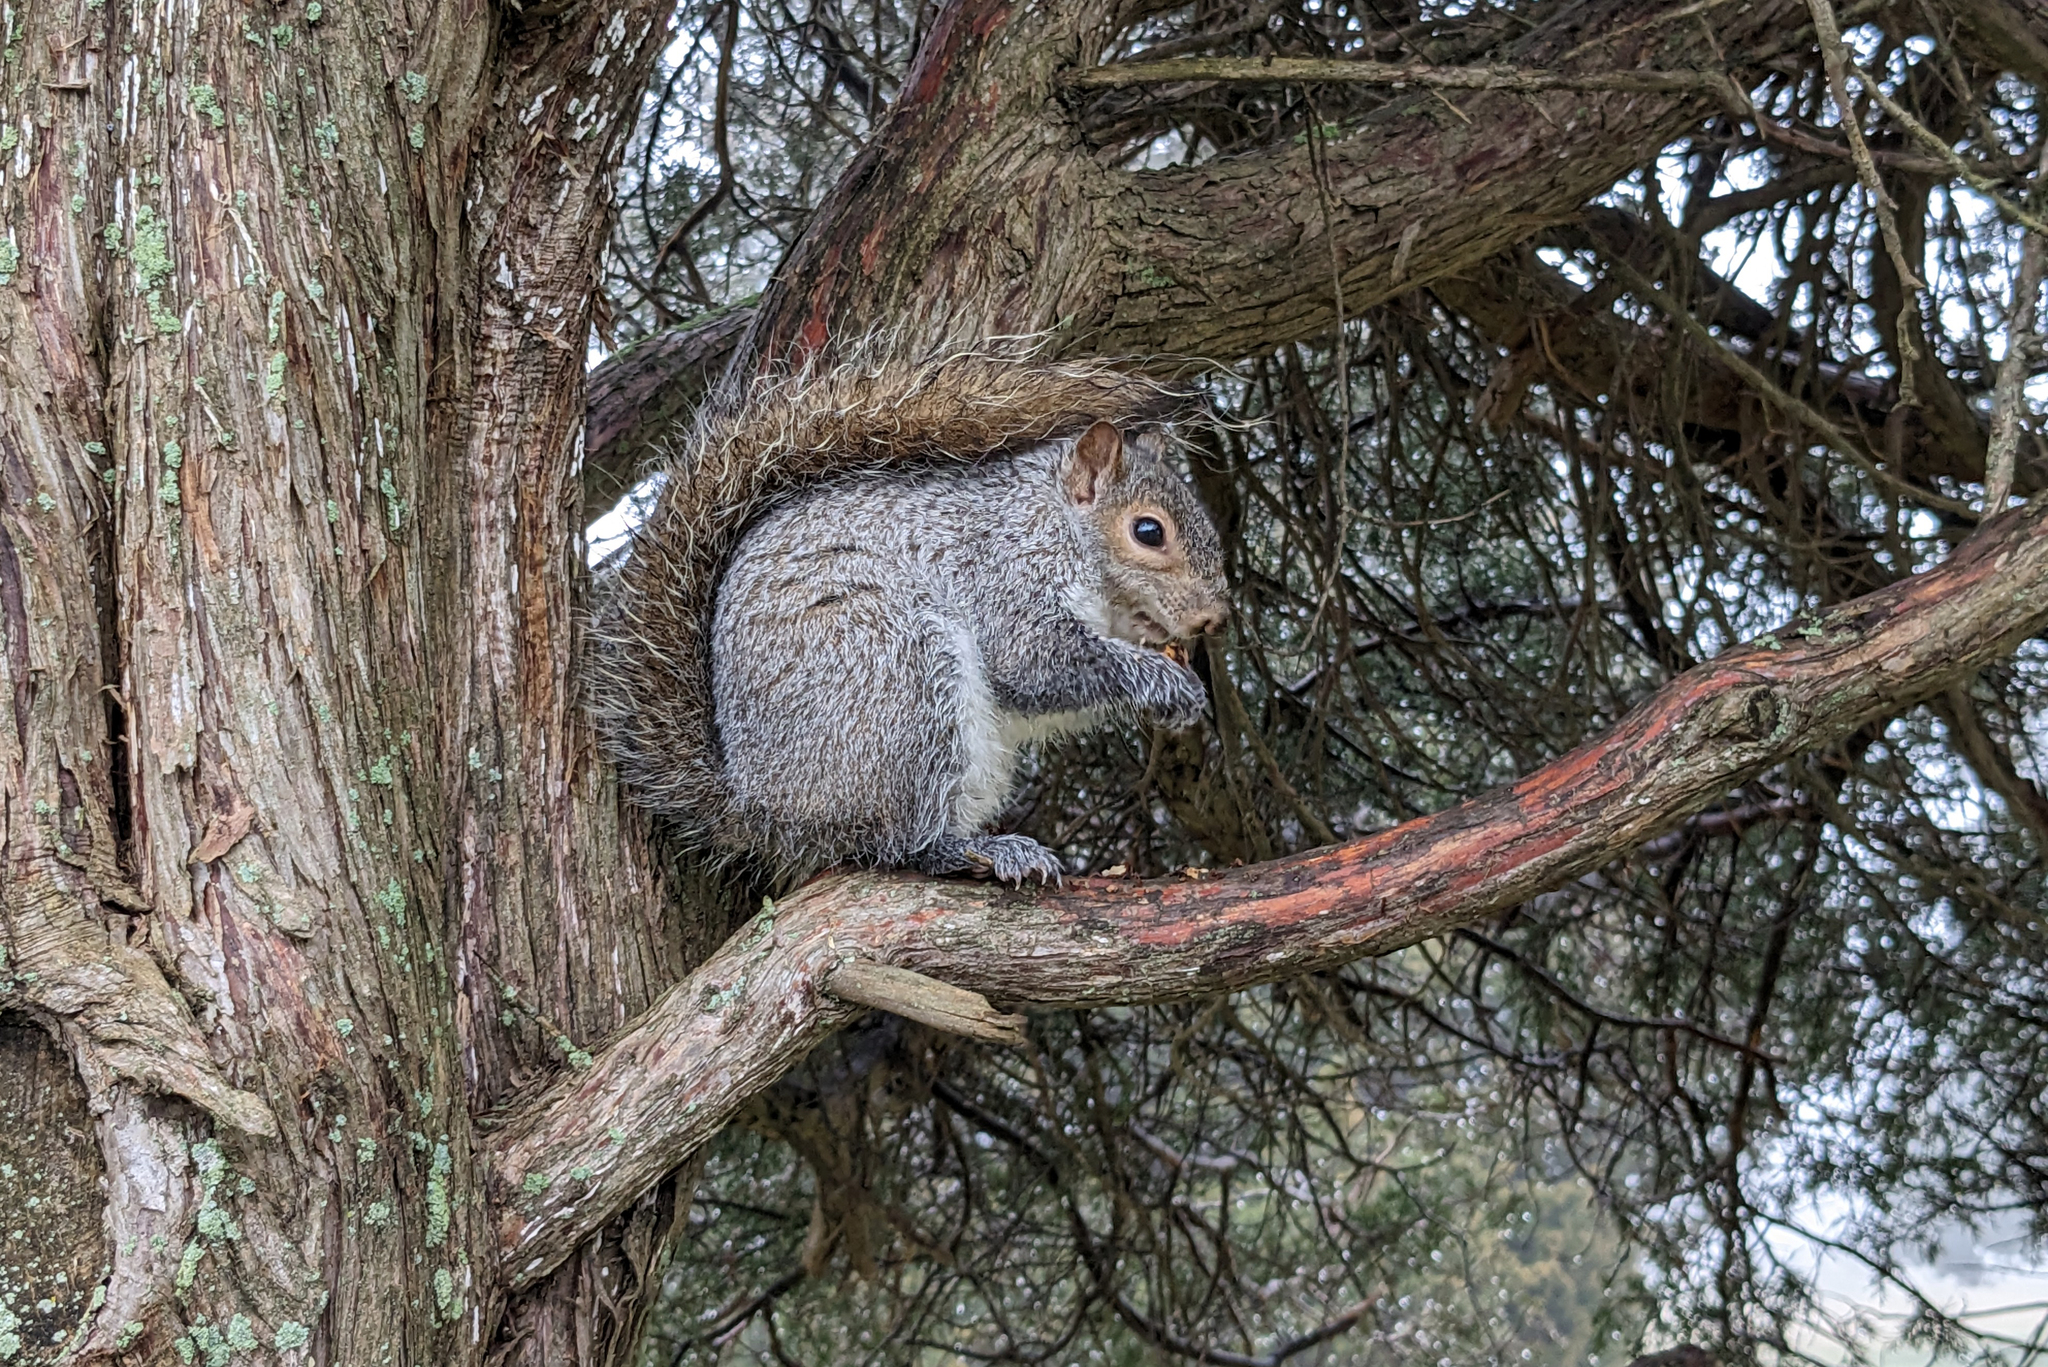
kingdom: Animalia
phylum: Chordata
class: Mammalia
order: Rodentia
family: Sciuridae
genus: Sciurus
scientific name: Sciurus carolinensis
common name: Eastern gray squirrel
